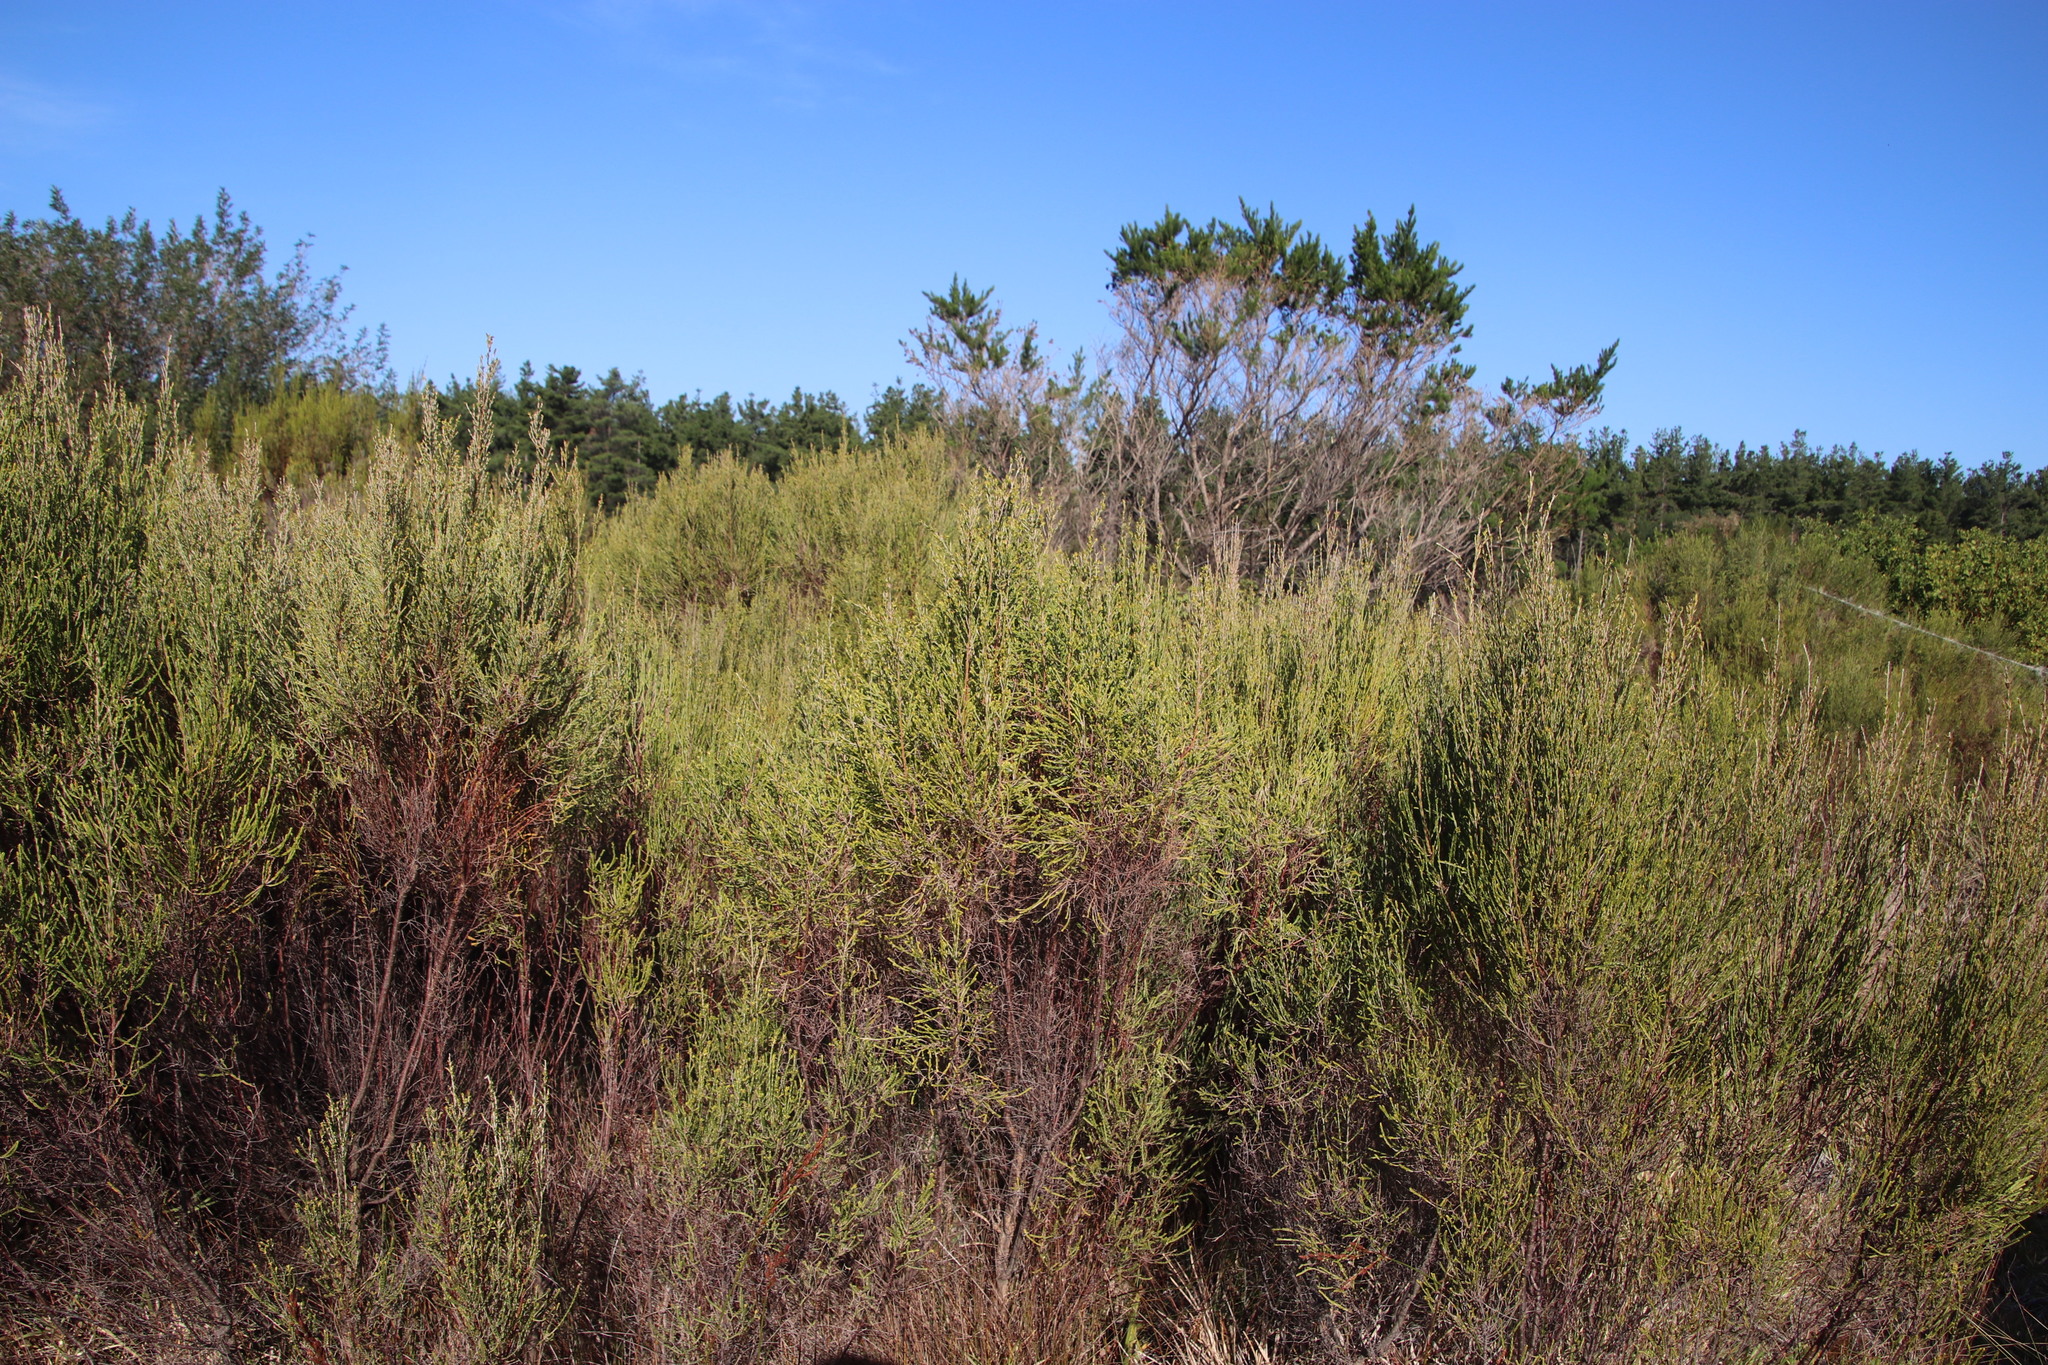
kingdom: Plantae
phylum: Tracheophyta
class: Magnoliopsida
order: Malvales
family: Thymelaeaceae
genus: Passerina
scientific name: Passerina corymbosa
